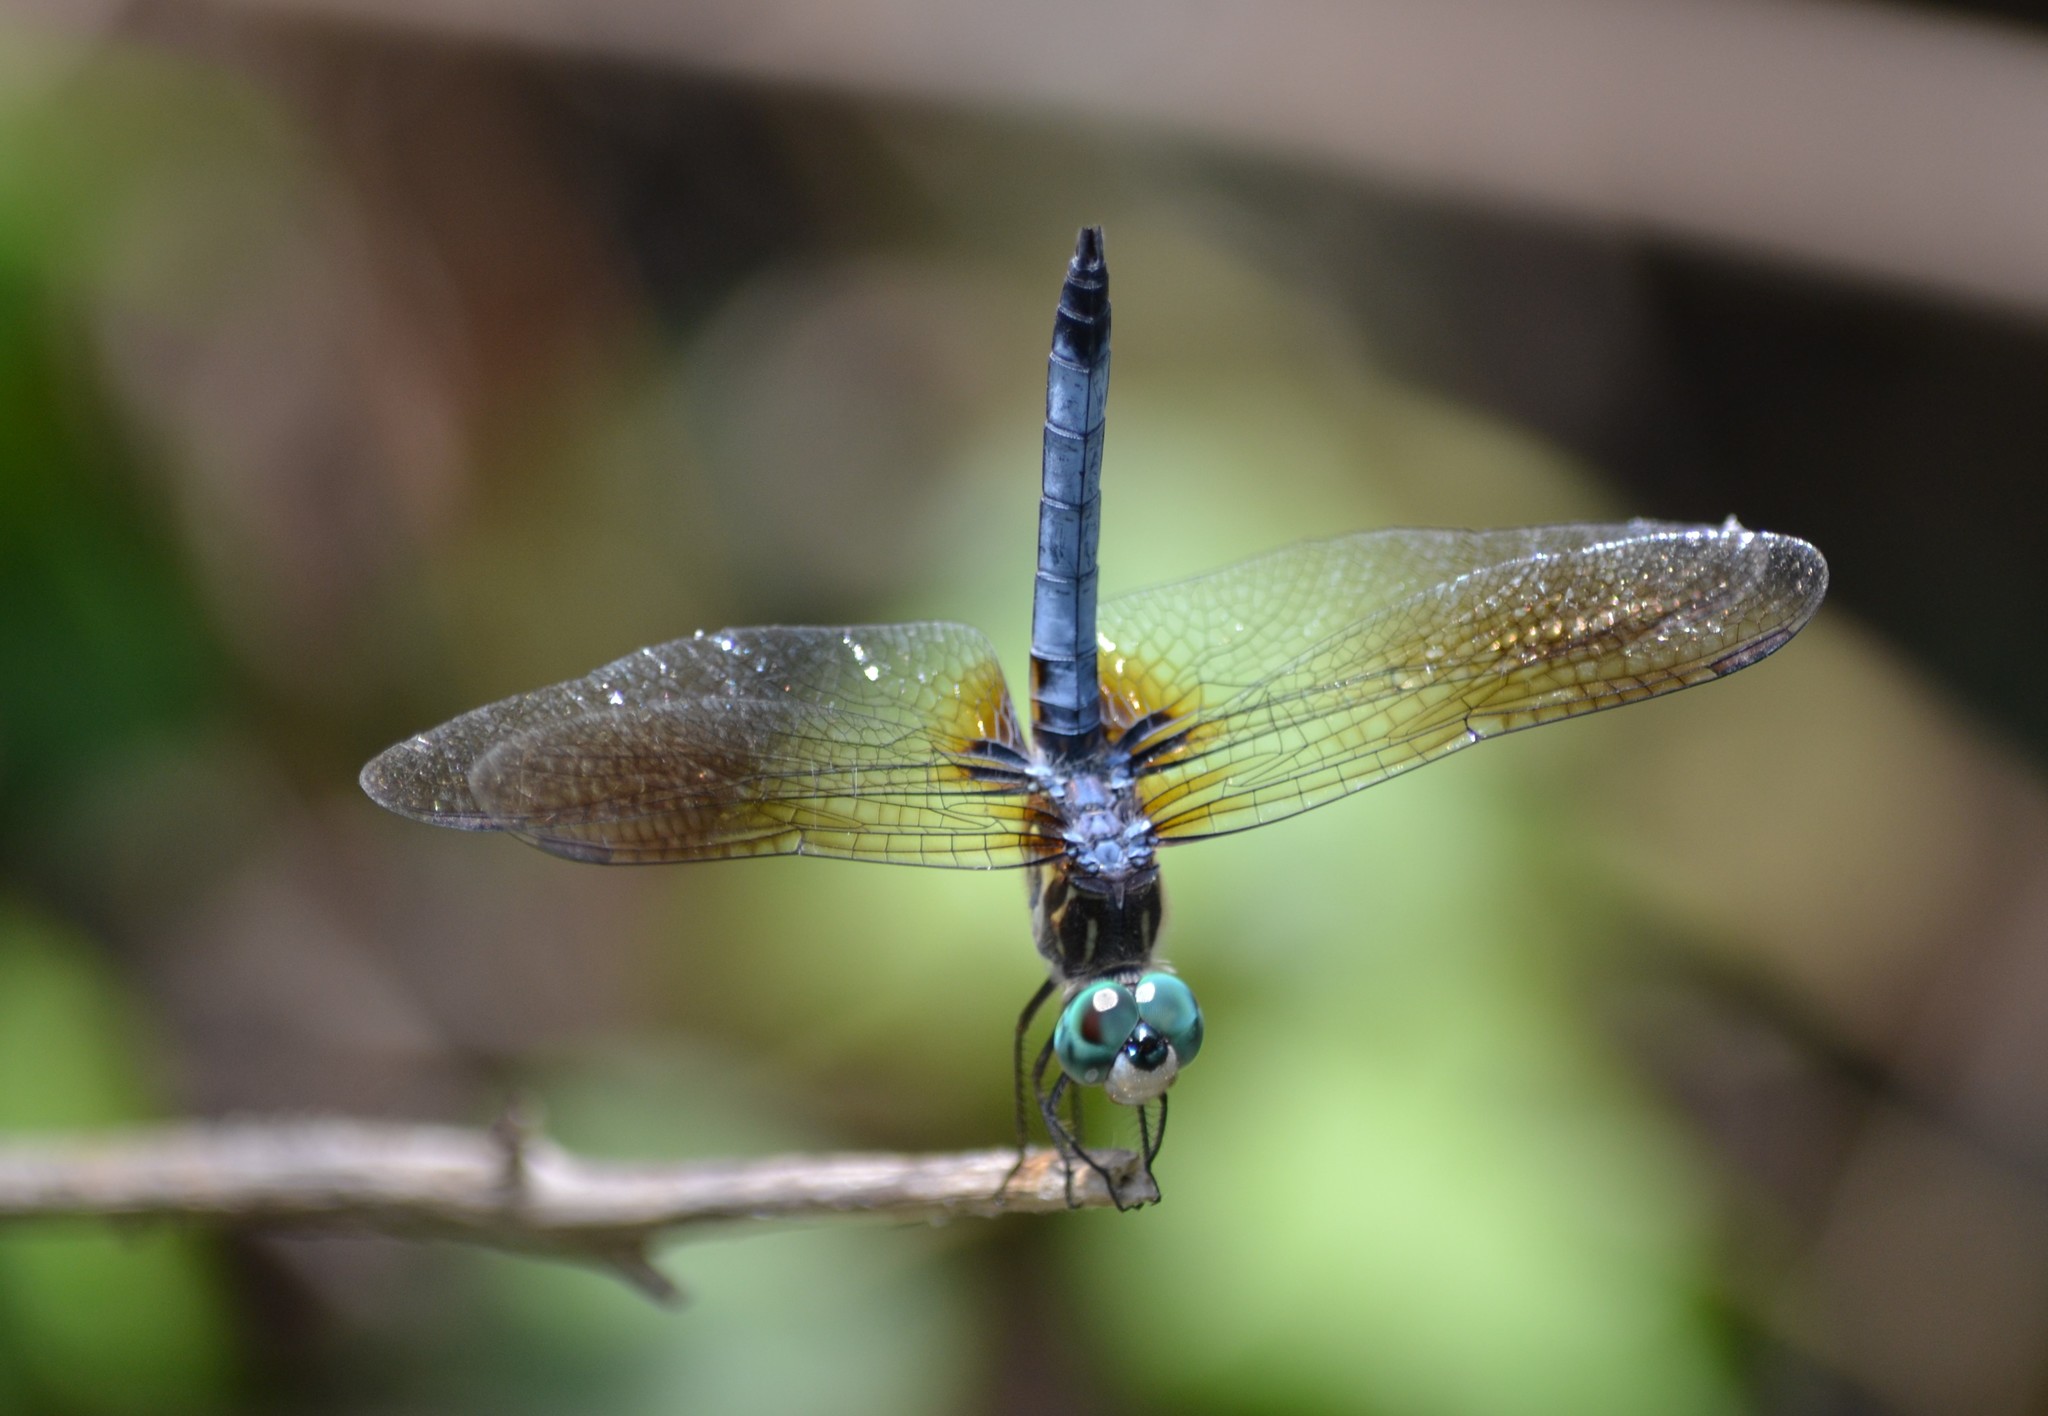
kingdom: Animalia
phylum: Arthropoda
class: Insecta
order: Odonata
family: Libellulidae
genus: Pachydiplax
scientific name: Pachydiplax longipennis
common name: Blue dasher
